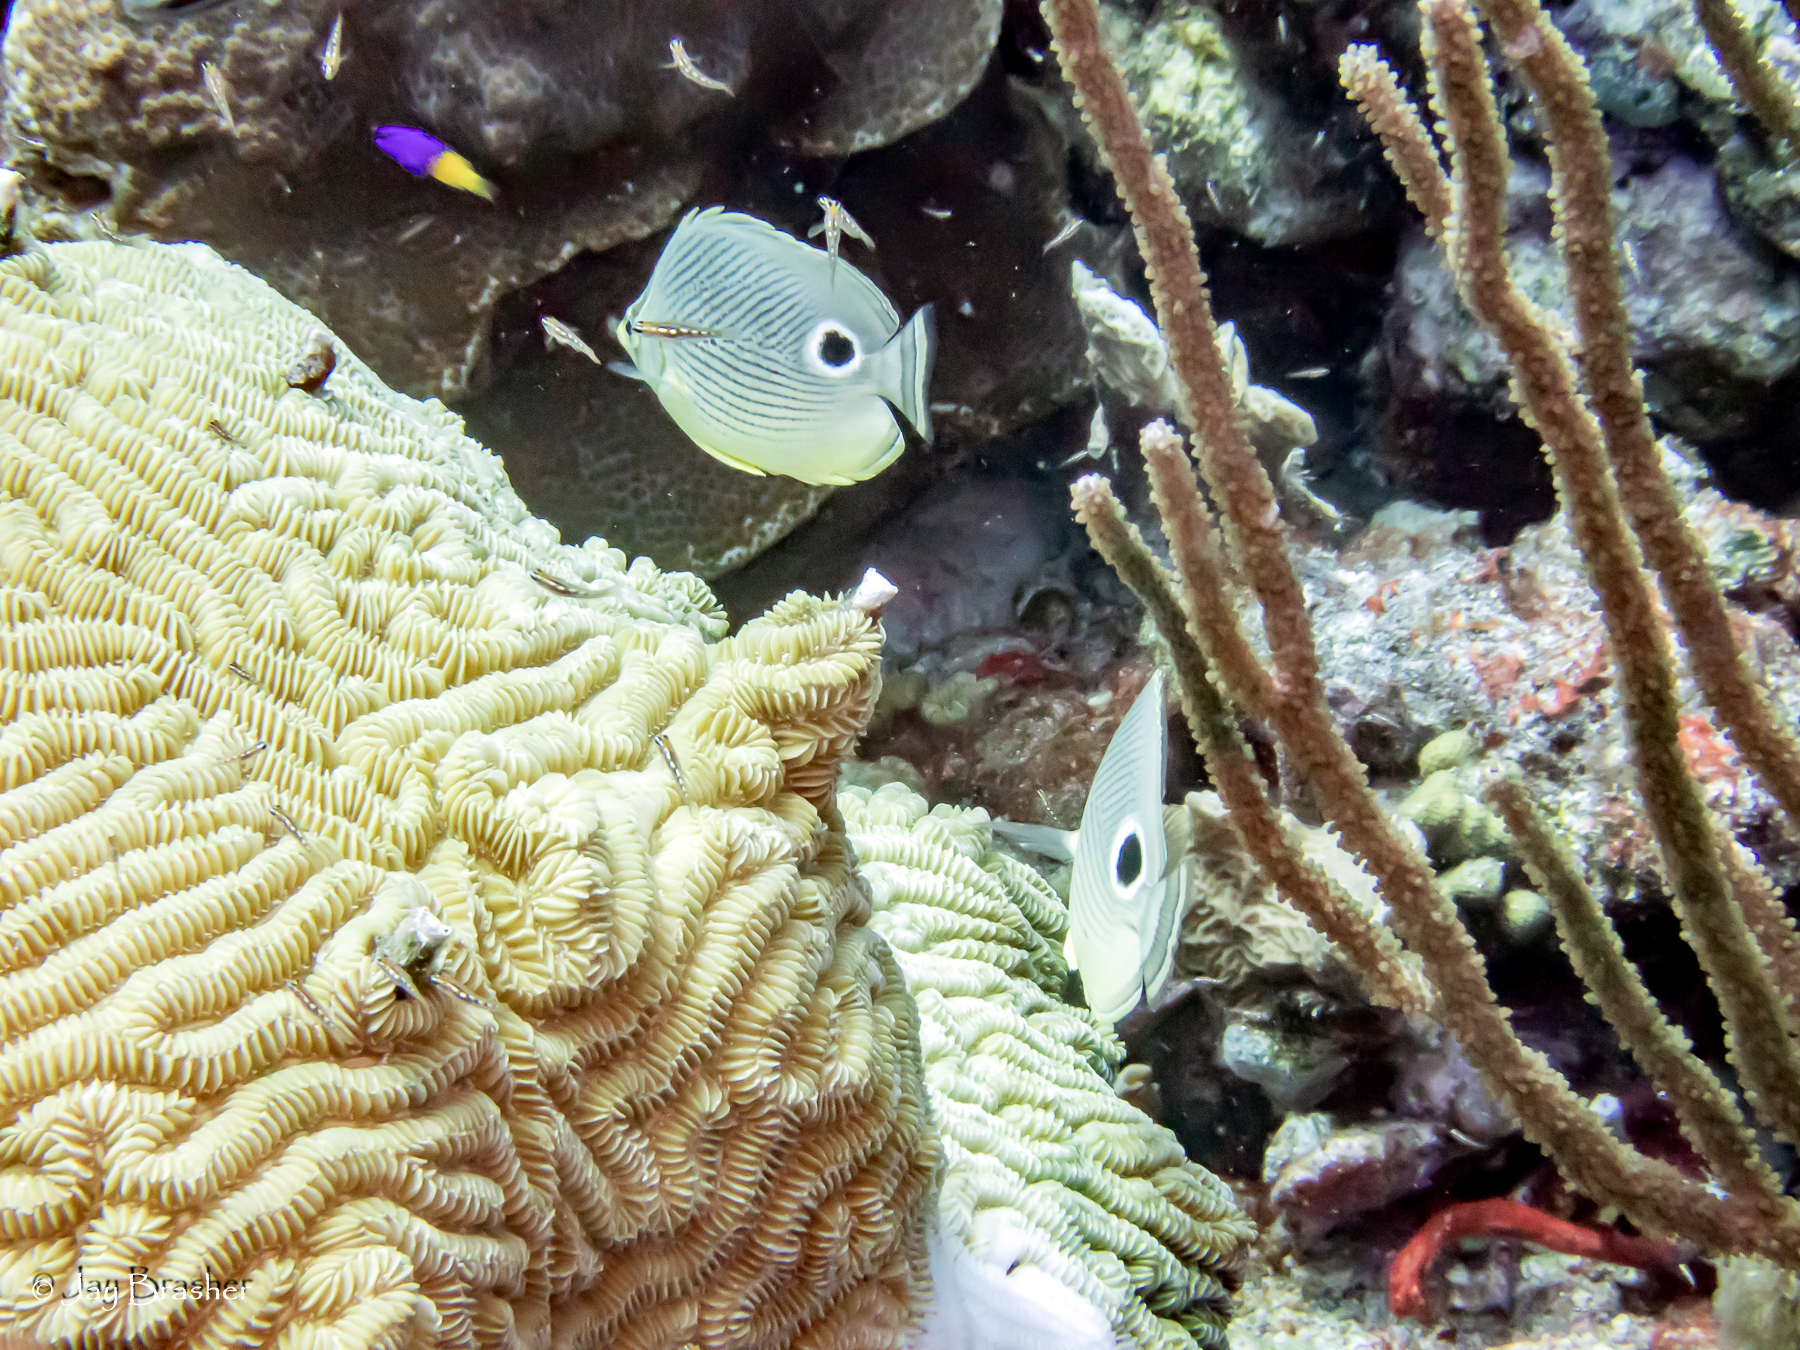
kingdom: Animalia
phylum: Chordata
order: Perciformes
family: Chaetodontidae
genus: Chaetodon
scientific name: Chaetodon capistratus
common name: Kete
